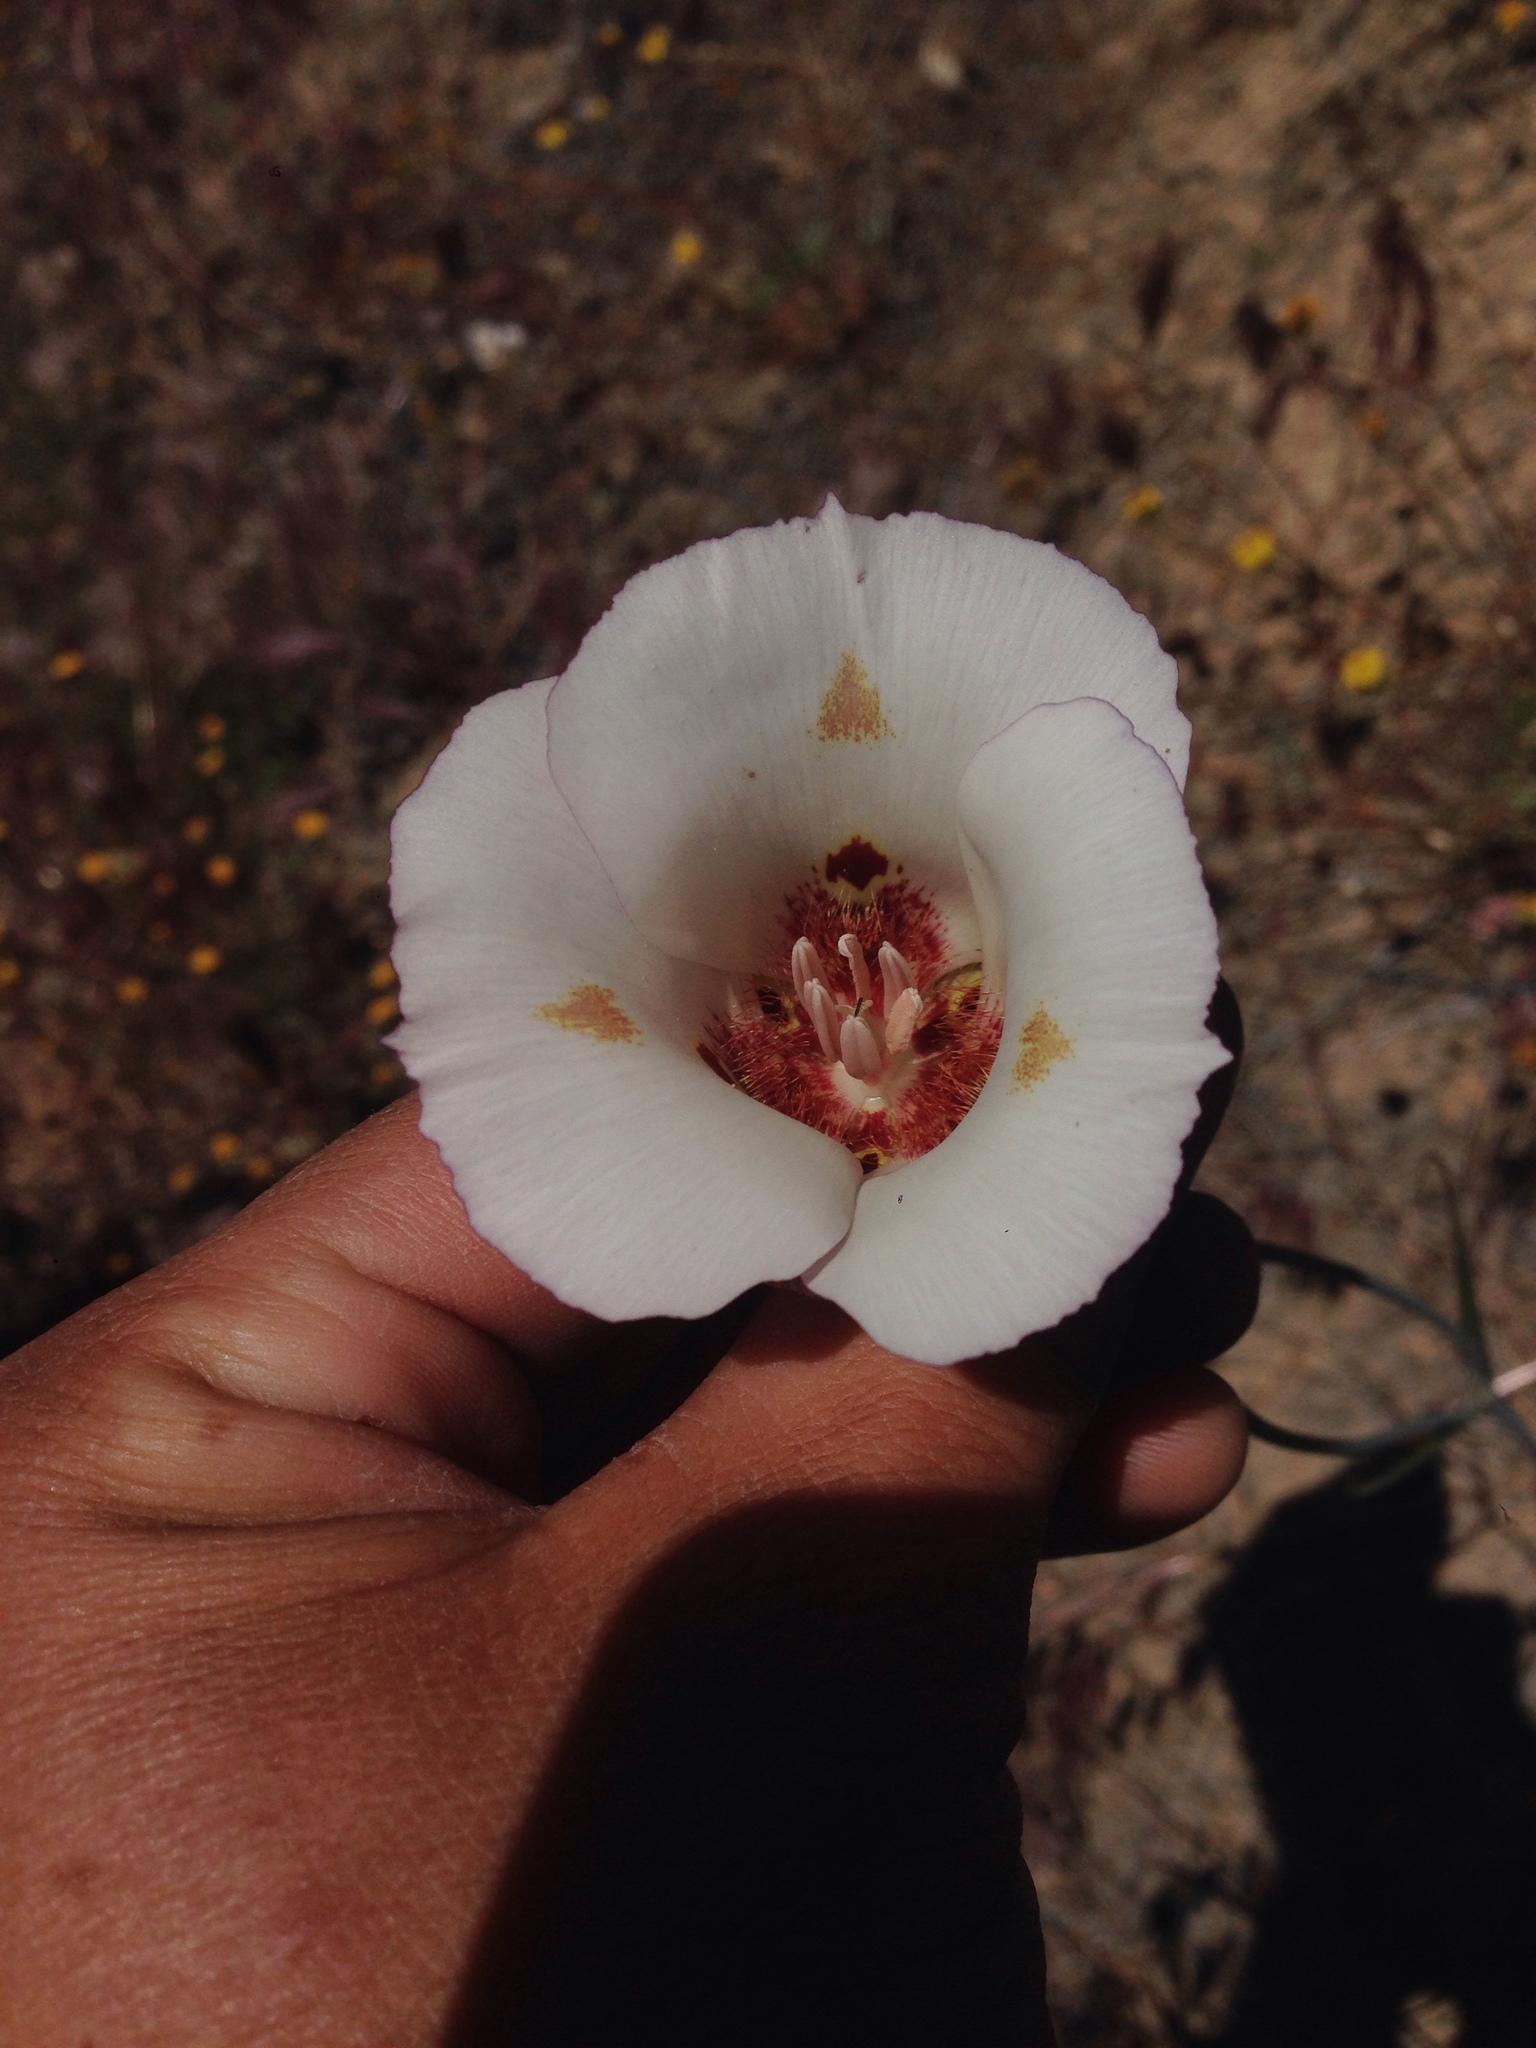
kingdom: Plantae
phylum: Tracheophyta
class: Liliopsida
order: Liliales
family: Liliaceae
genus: Calochortus
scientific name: Calochortus venustus
